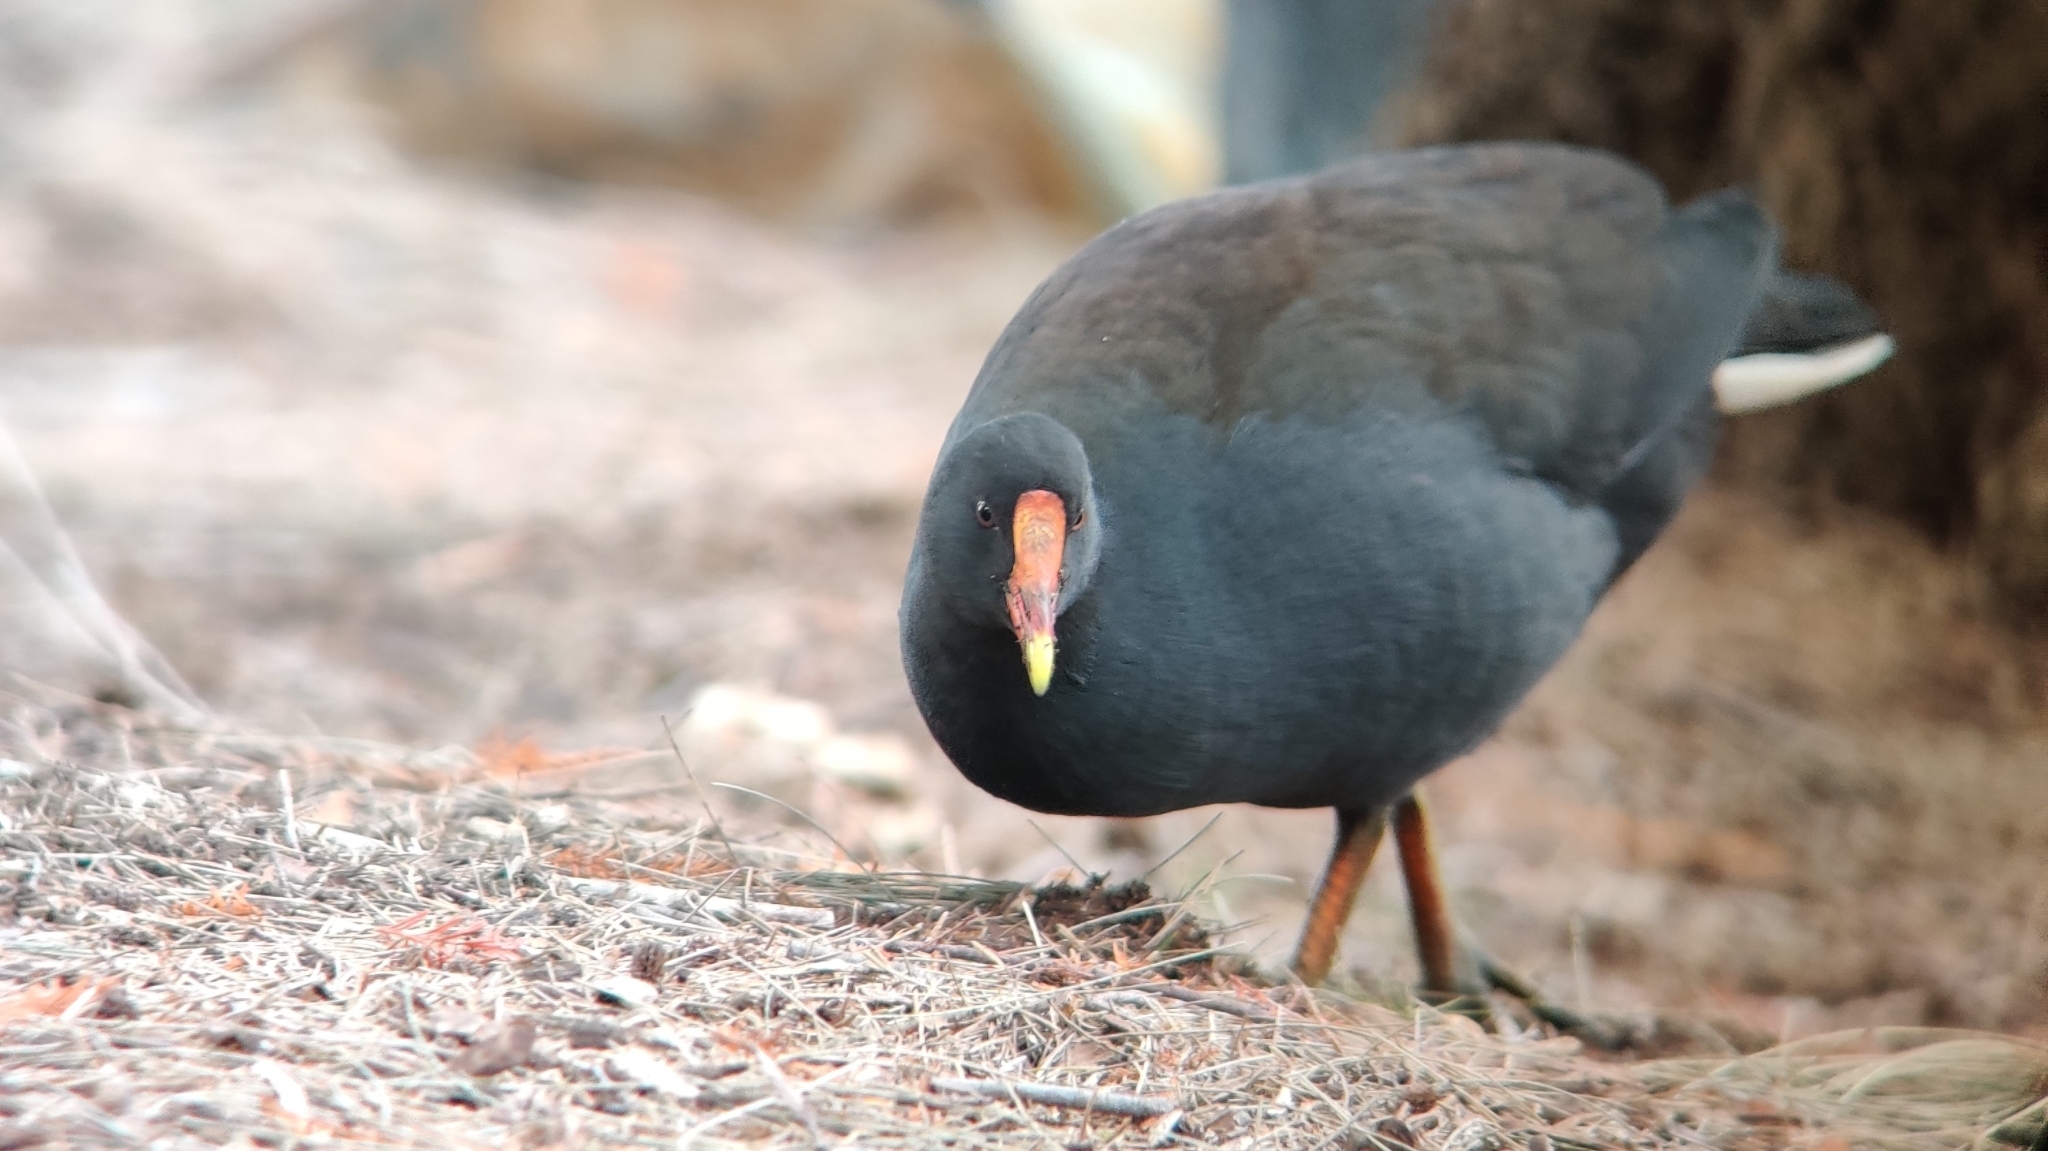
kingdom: Animalia
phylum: Chordata
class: Aves
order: Gruiformes
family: Rallidae
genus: Gallinula
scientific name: Gallinula tenebrosa
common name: Dusky moorhen
